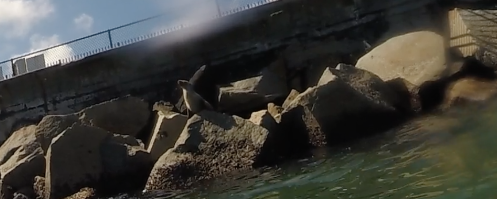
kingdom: Animalia
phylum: Chordata
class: Mammalia
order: Carnivora
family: Otariidae
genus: Zalophus
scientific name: Zalophus californianus
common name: California sea lion
